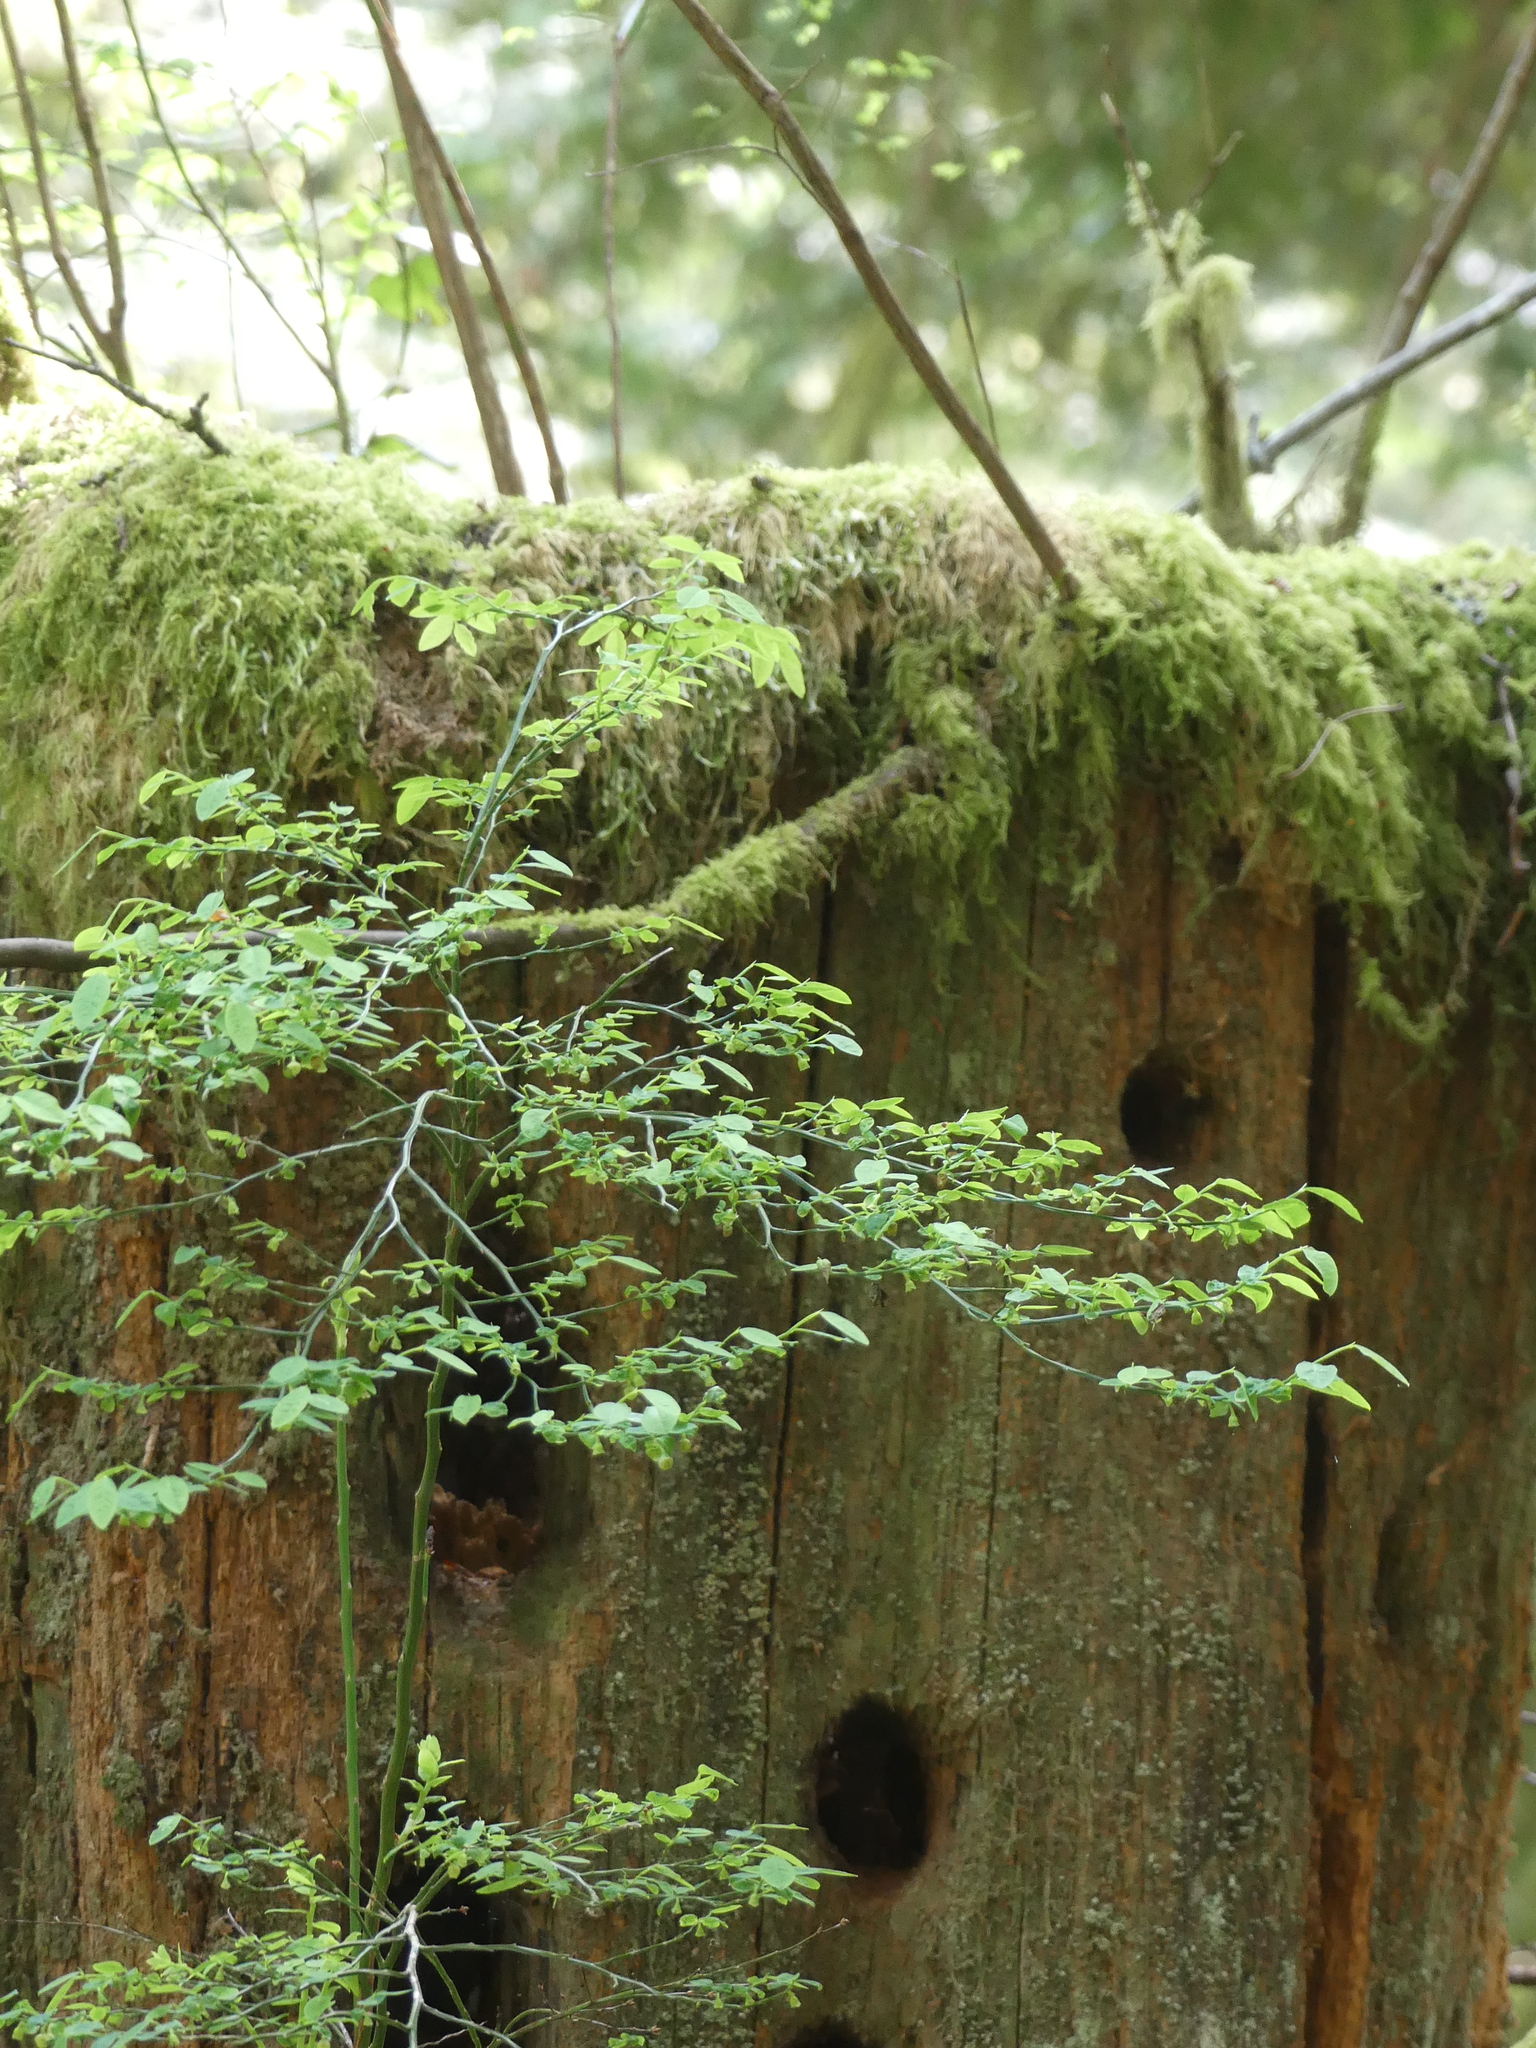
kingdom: Plantae
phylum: Tracheophyta
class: Magnoliopsida
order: Ericales
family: Ericaceae
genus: Vaccinium
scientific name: Vaccinium parvifolium
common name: Red-huckleberry
